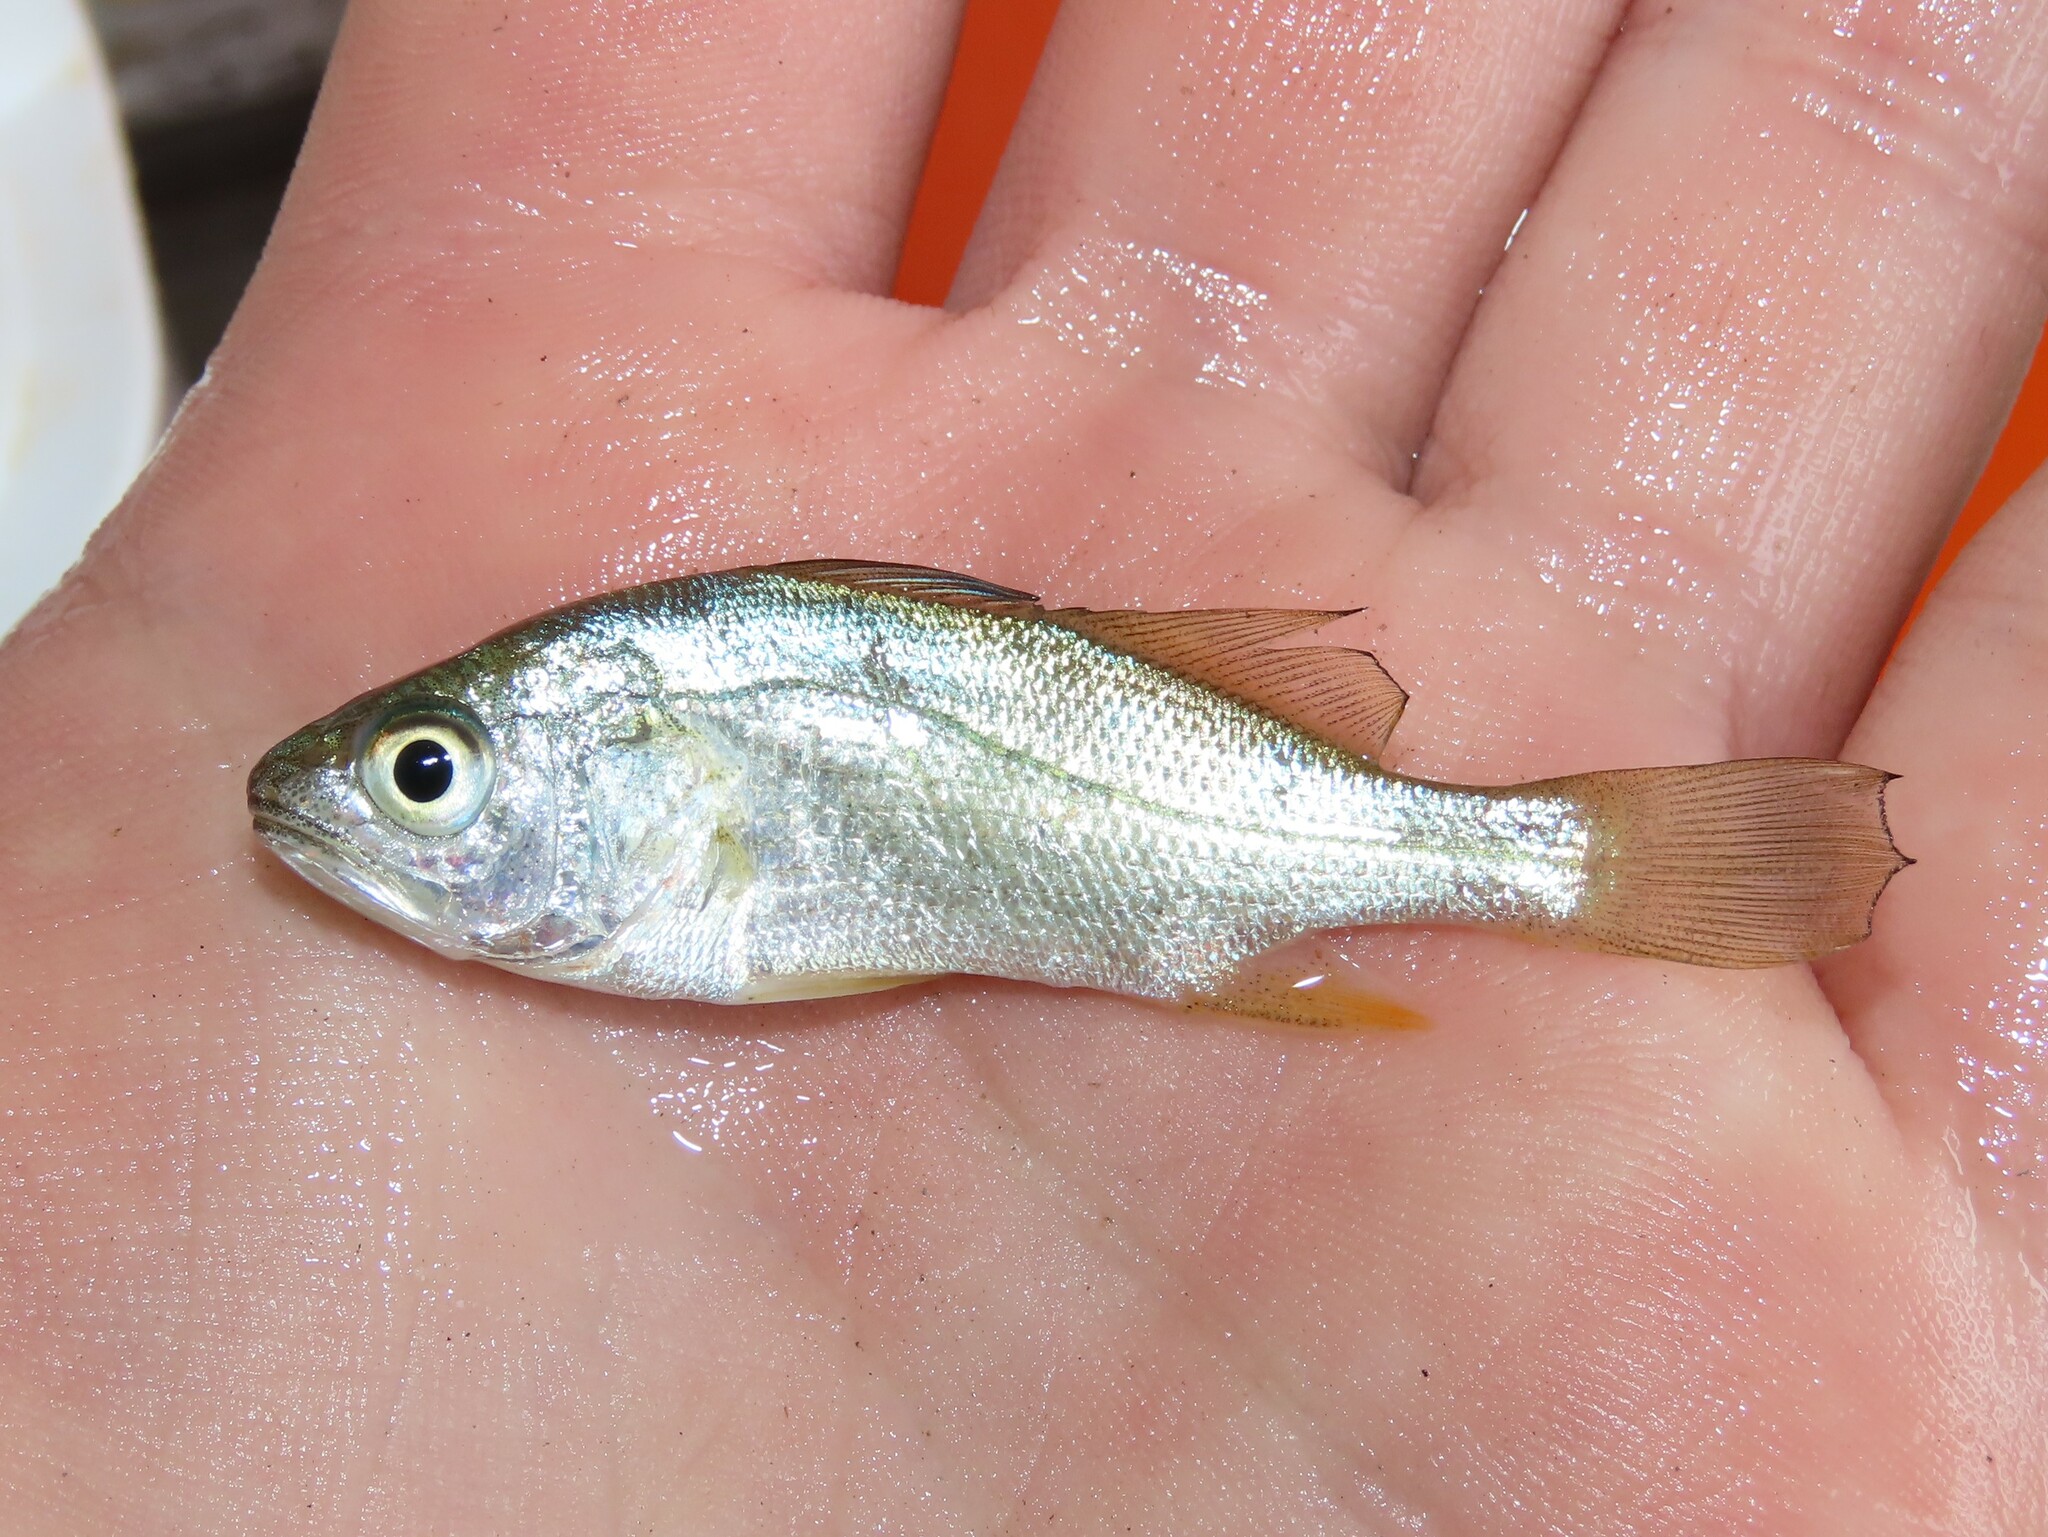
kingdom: Animalia
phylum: Chordata
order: Perciformes
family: Sciaenidae
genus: Bairdiella
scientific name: Bairdiella chrysoura
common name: Silver perch
